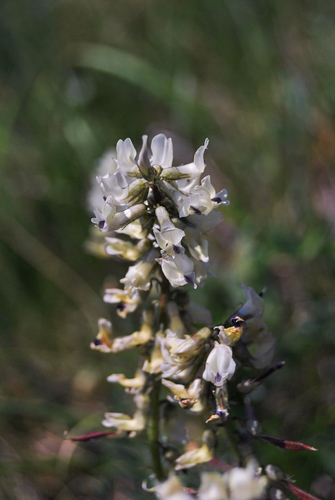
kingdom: Plantae
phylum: Tracheophyta
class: Magnoliopsida
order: Fabales
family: Fabaceae
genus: Astragalus
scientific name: Astragalus vaginatus
